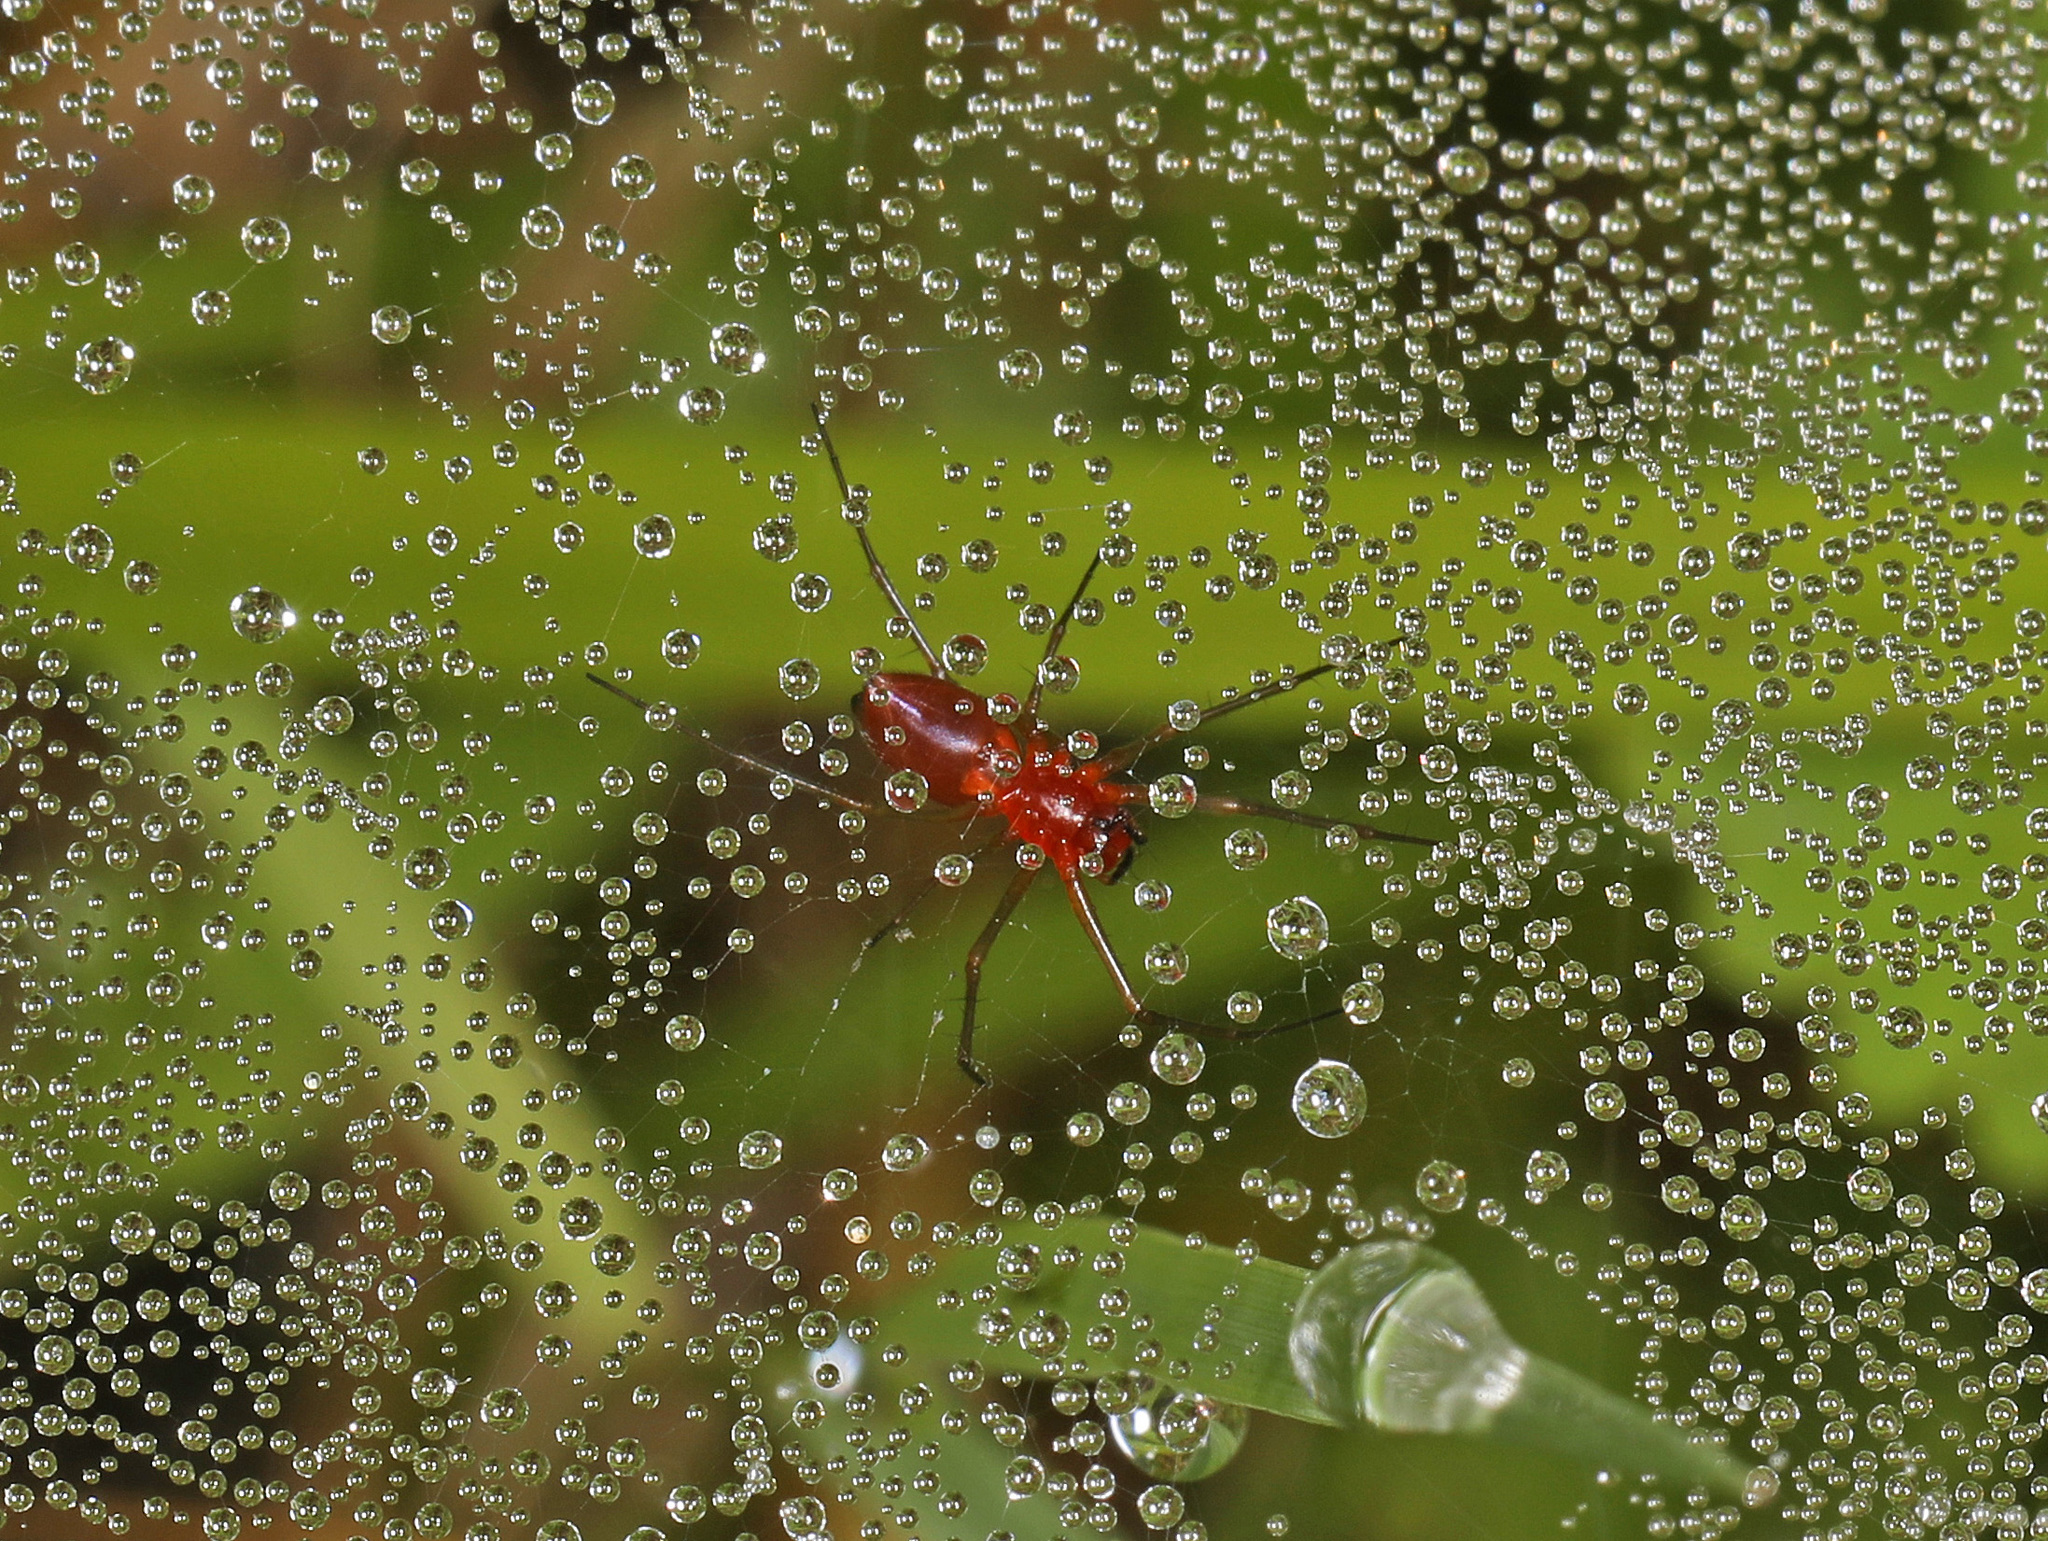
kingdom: Animalia
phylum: Arthropoda
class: Arachnida
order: Araneae
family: Linyphiidae
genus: Florinda
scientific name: Florinda coccinea
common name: Black-tailed red sheetweaver
